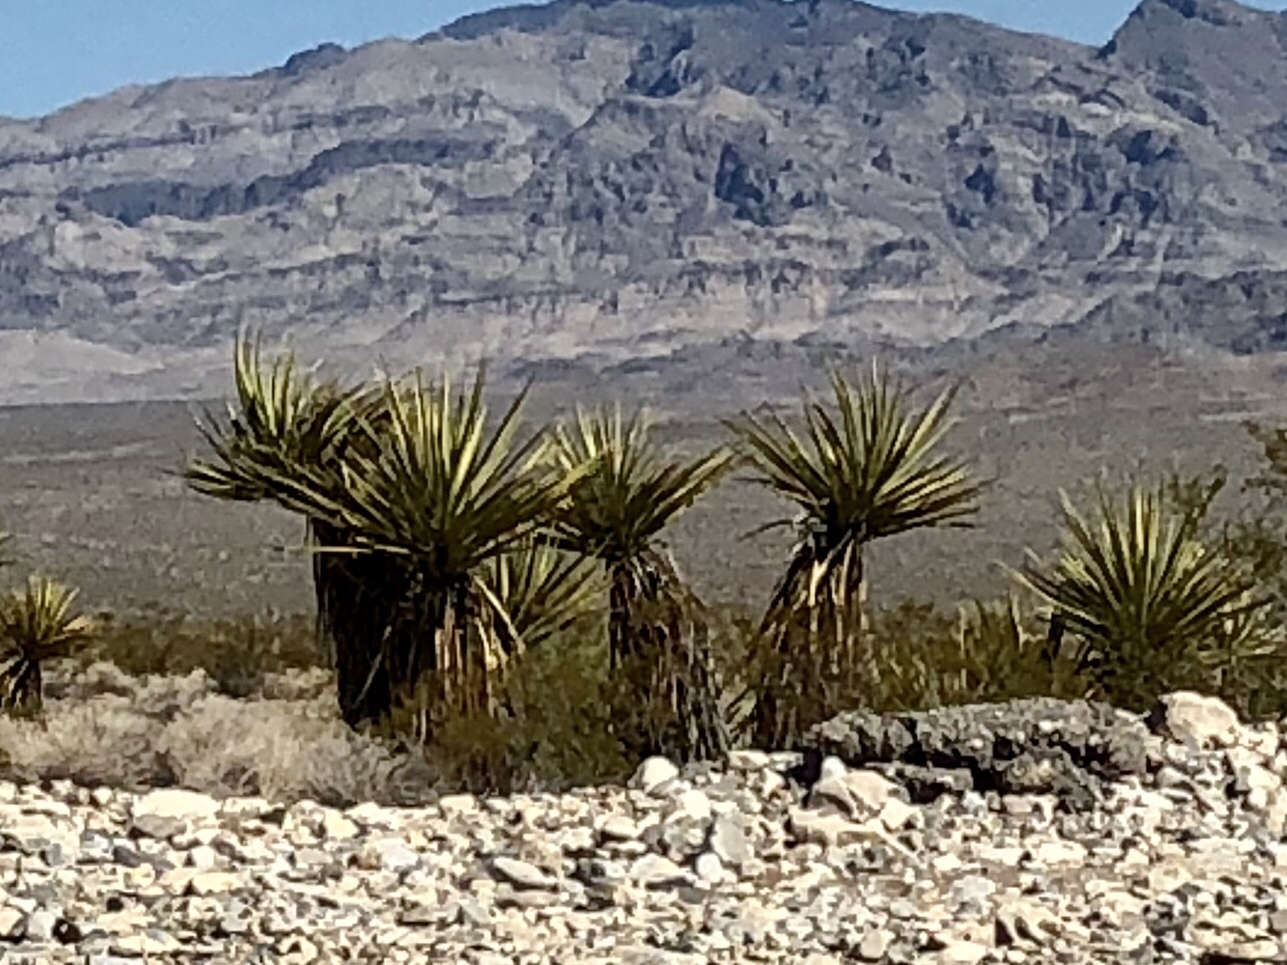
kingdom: Plantae
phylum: Tracheophyta
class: Liliopsida
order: Asparagales
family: Asparagaceae
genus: Yucca
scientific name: Yucca schidigera
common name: Mojave yucca
